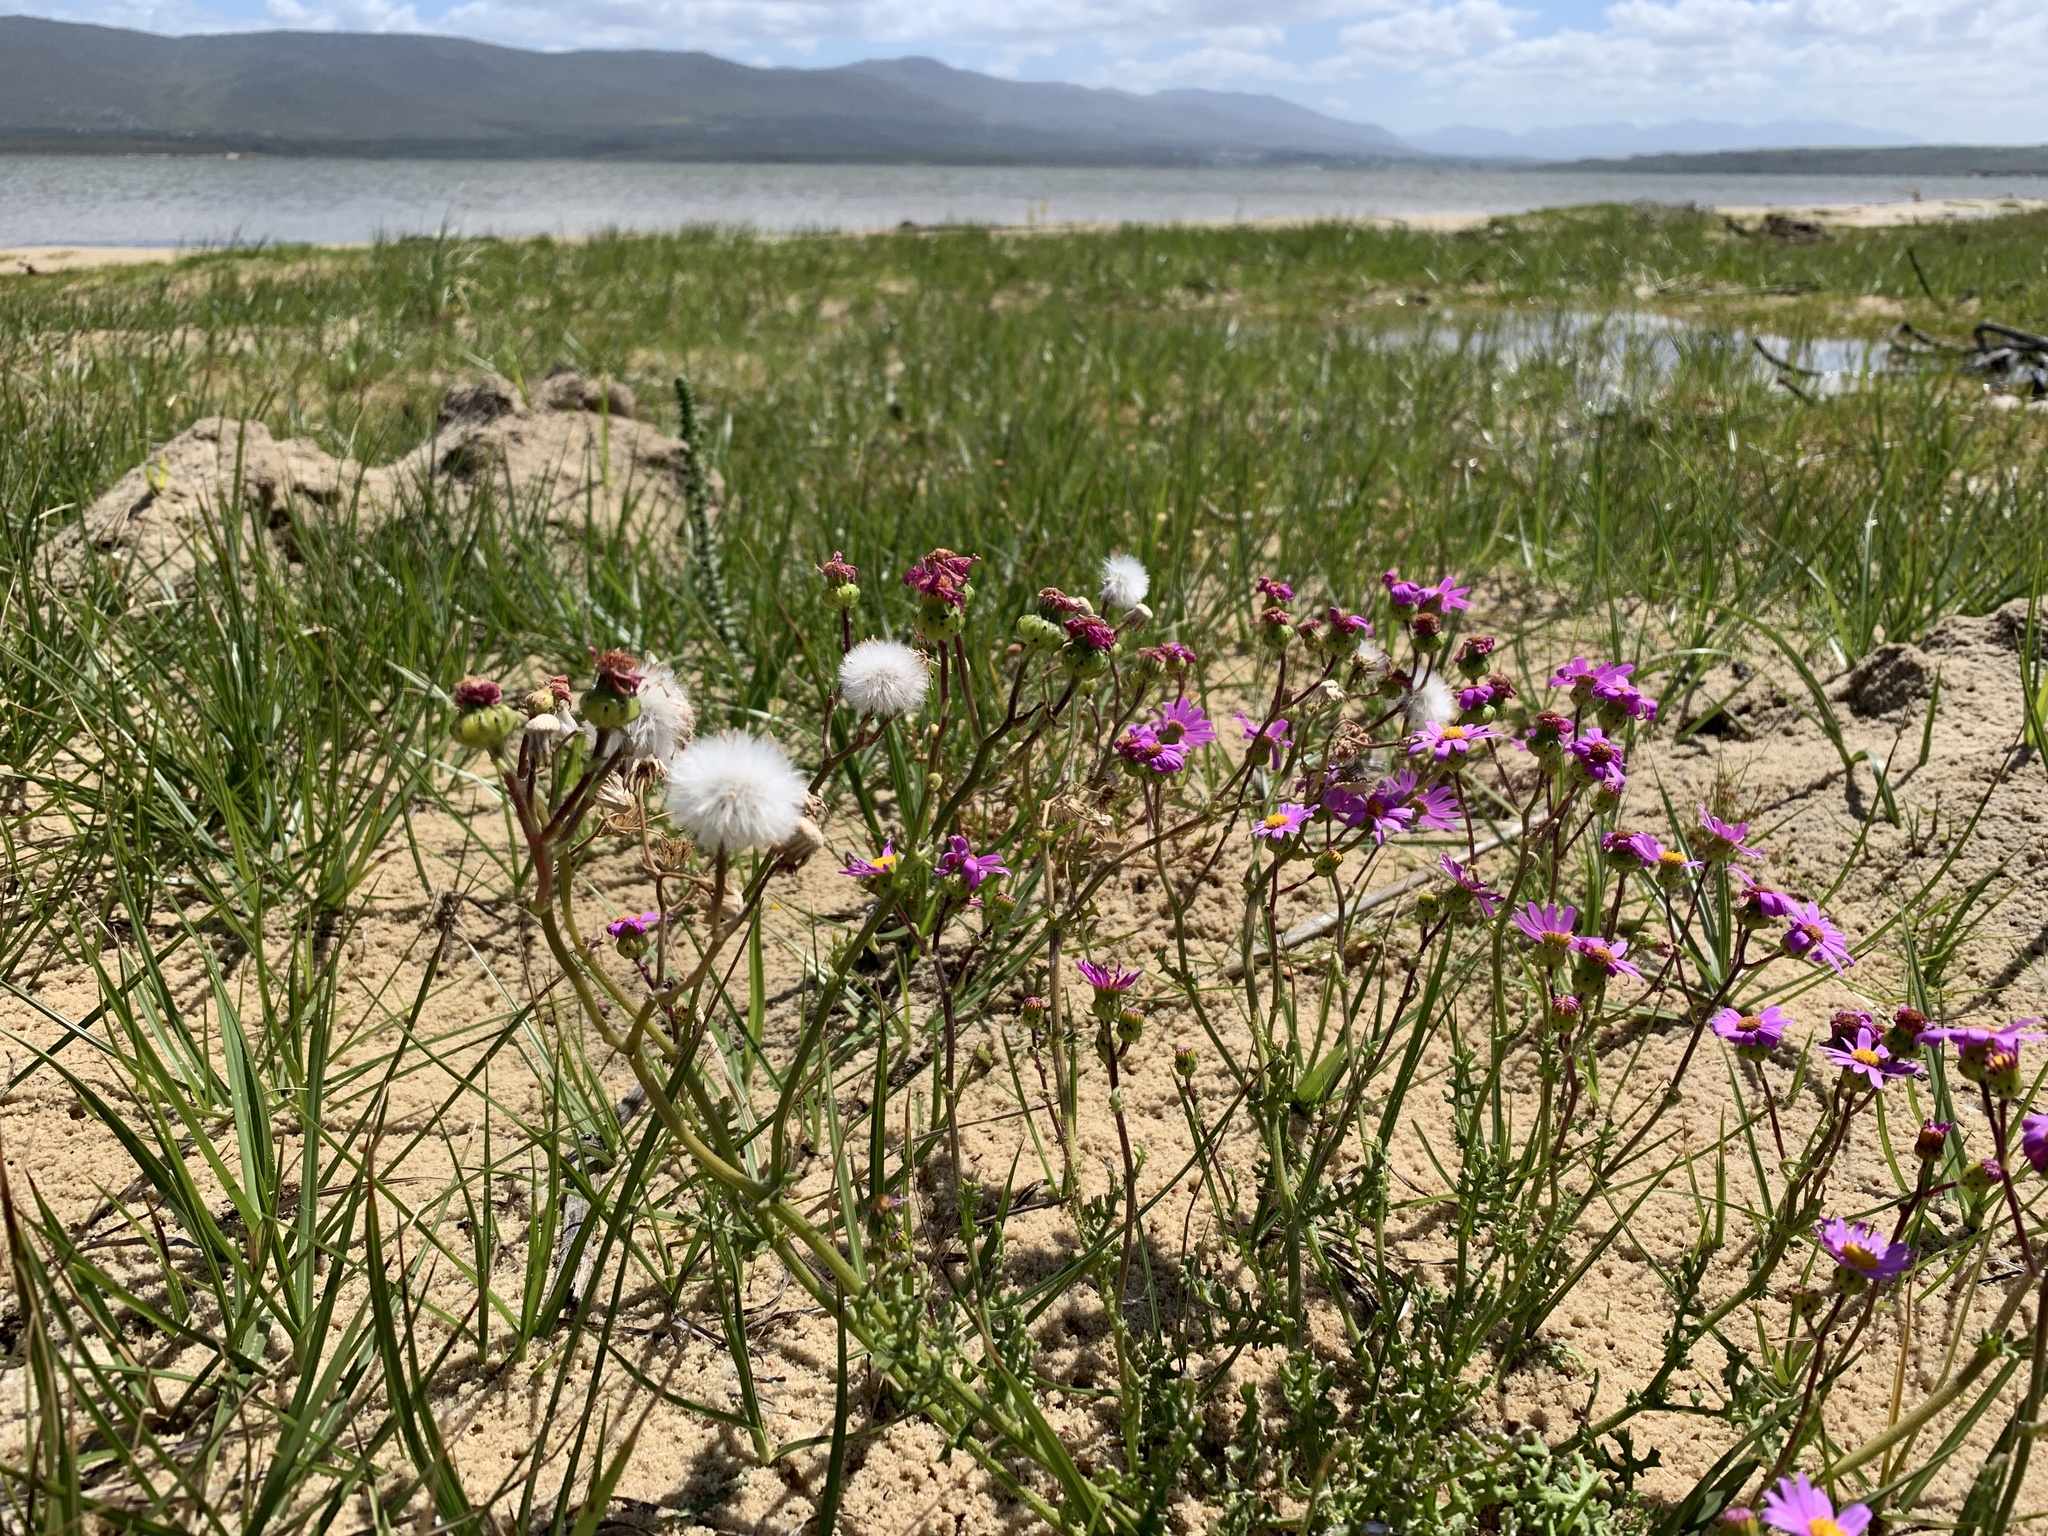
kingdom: Plantae
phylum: Tracheophyta
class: Magnoliopsida
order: Asterales
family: Asteraceae
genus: Senecio
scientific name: Senecio elegans
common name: Purple groundsel
